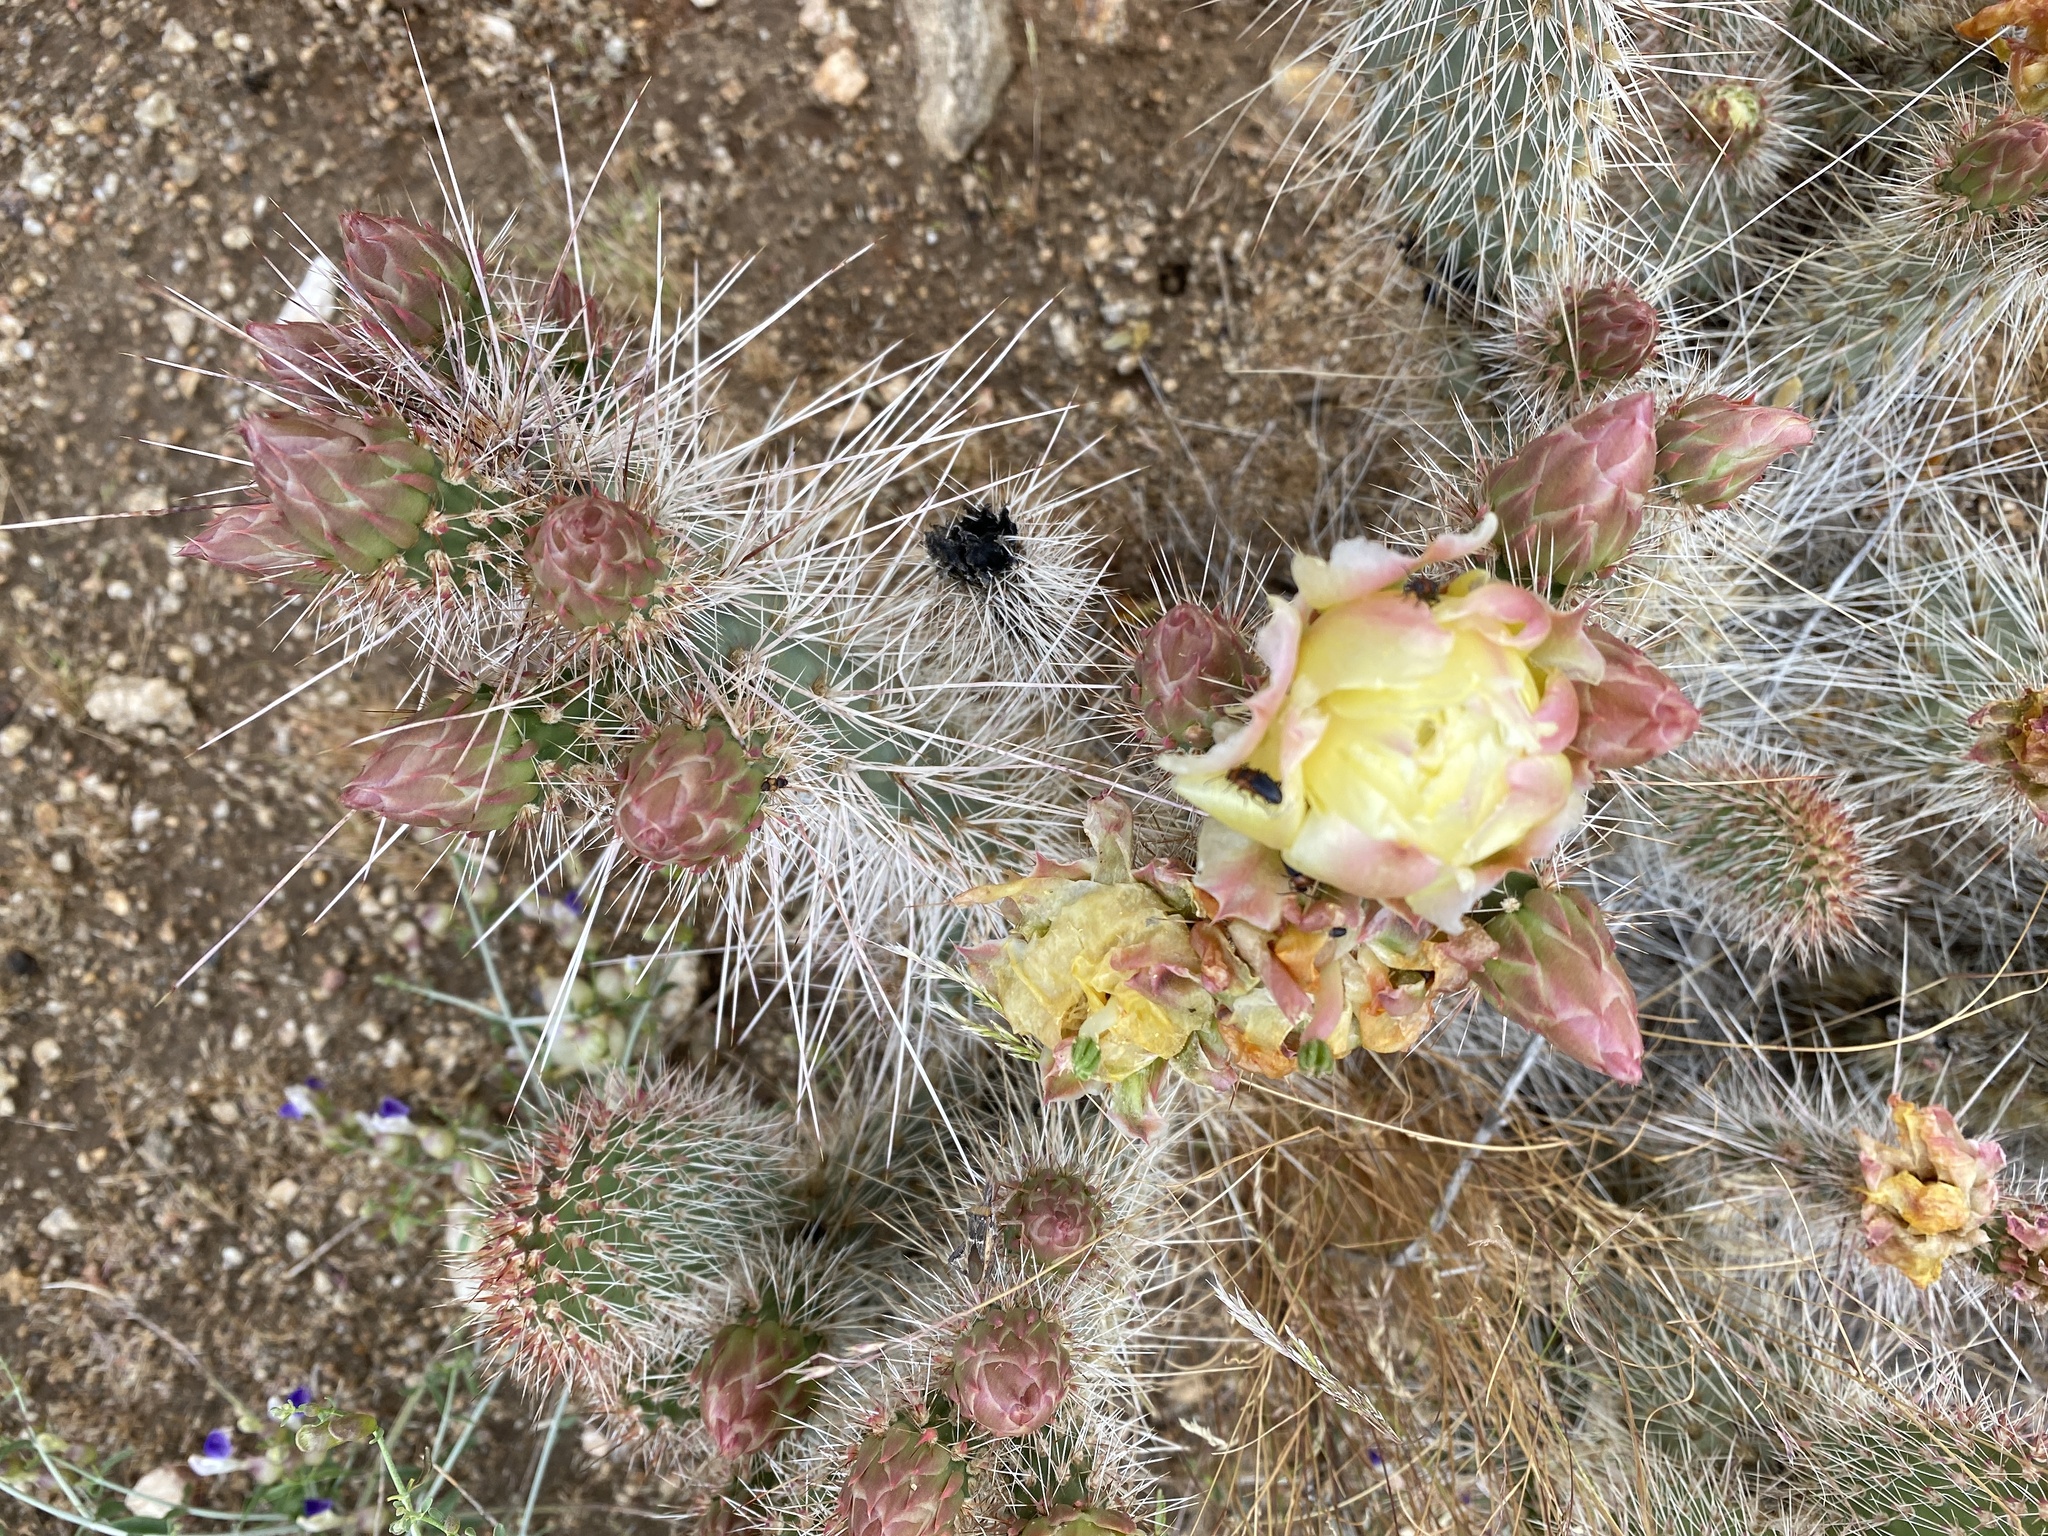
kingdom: Plantae
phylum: Tracheophyta
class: Magnoliopsida
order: Caryophyllales
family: Cactaceae
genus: Opuntia
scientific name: Opuntia polyacantha
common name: Plains prickly-pear
